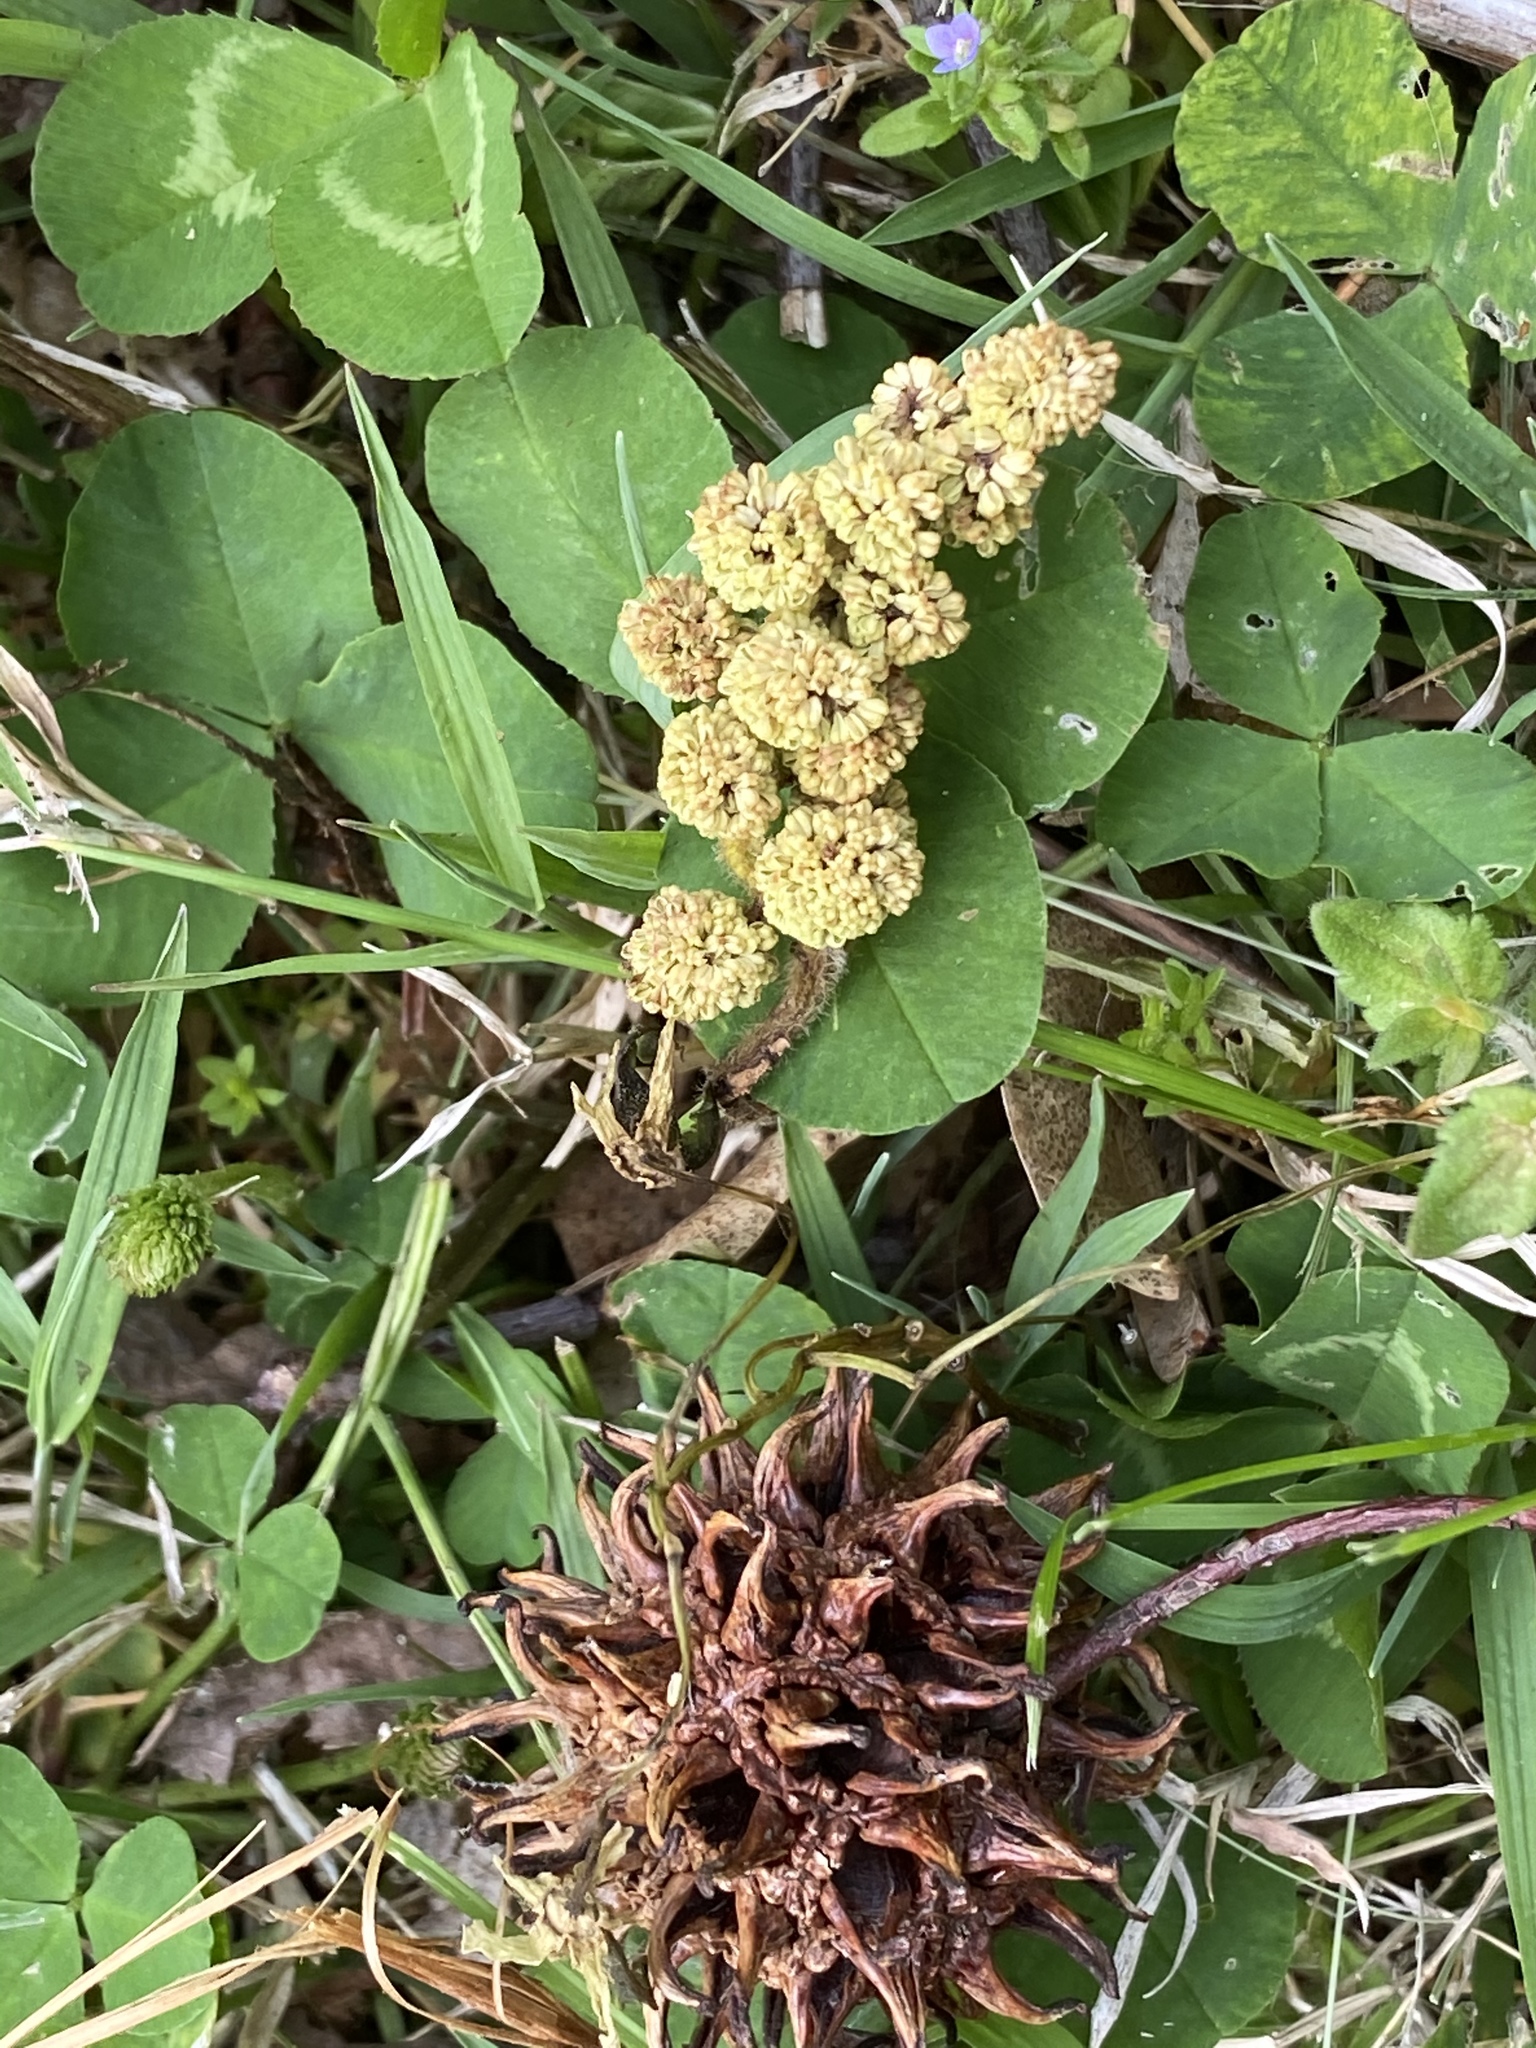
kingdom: Plantae
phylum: Tracheophyta
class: Magnoliopsida
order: Saxifragales
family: Altingiaceae
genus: Liquidambar
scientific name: Liquidambar styraciflua
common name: Sweet gum
